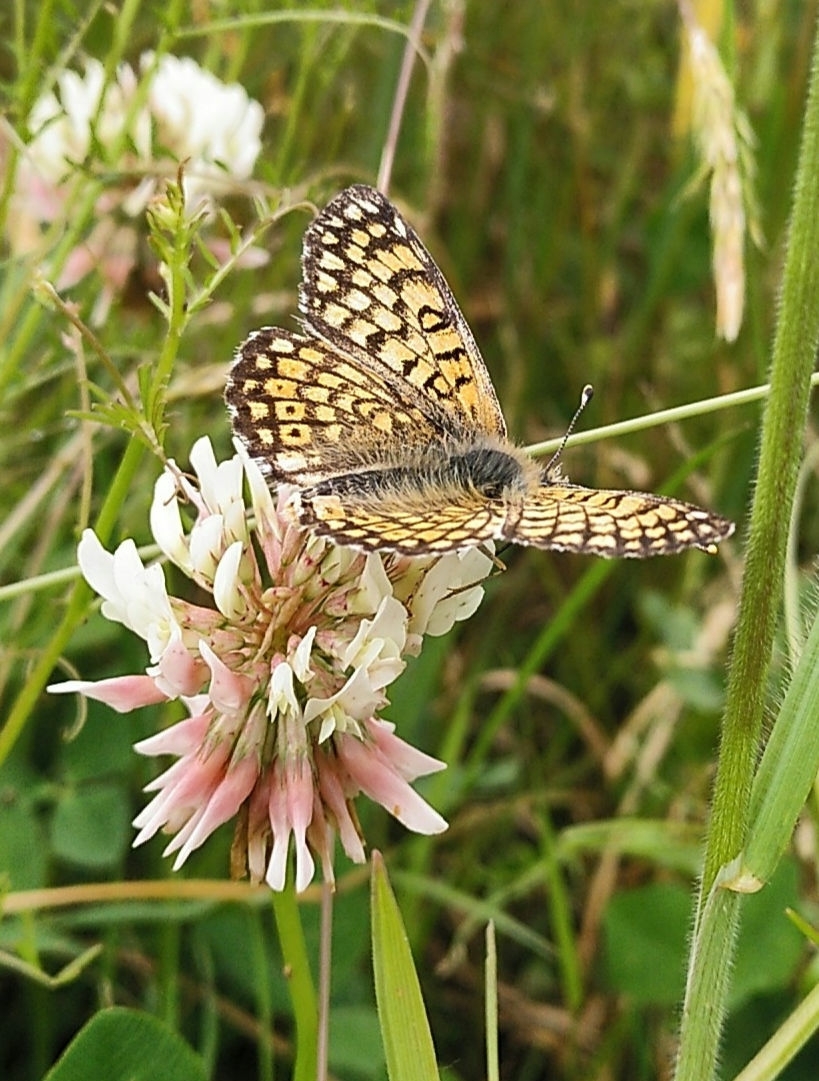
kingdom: Animalia
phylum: Arthropoda
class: Insecta
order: Lepidoptera
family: Nymphalidae
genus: Melitaea
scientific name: Melitaea cinxia
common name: Glanville fritillary
